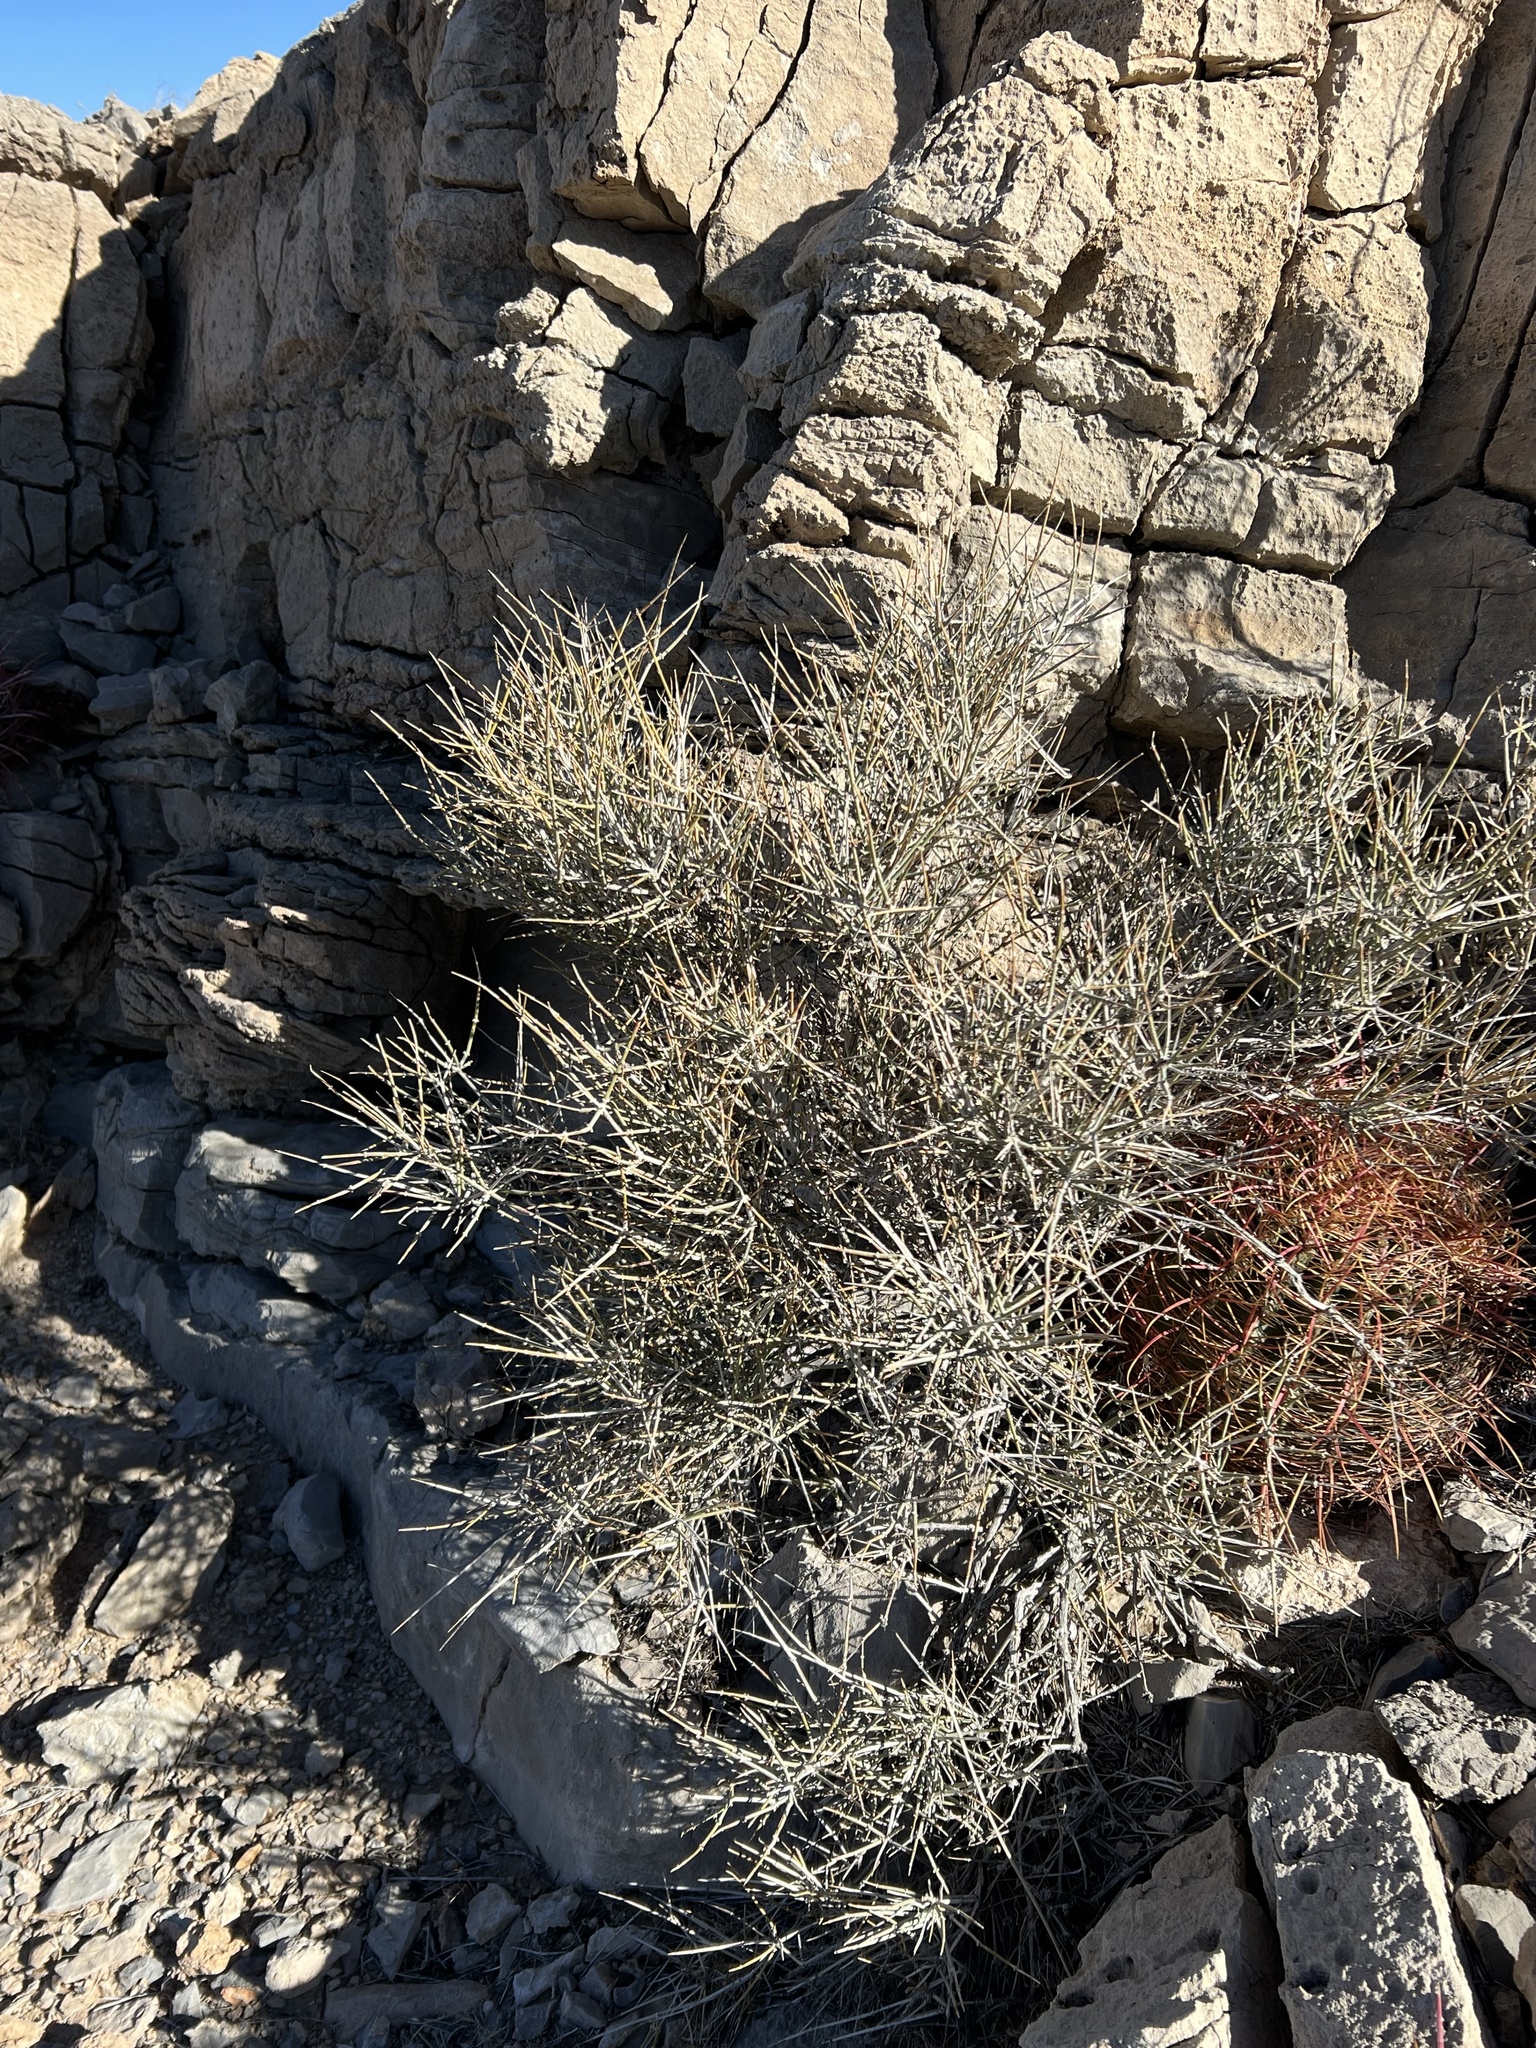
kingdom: Plantae
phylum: Tracheophyta
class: Gnetopsida
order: Ephedrales
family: Ephedraceae
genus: Ephedra
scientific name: Ephedra nevadensis
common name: Gray ephedra
